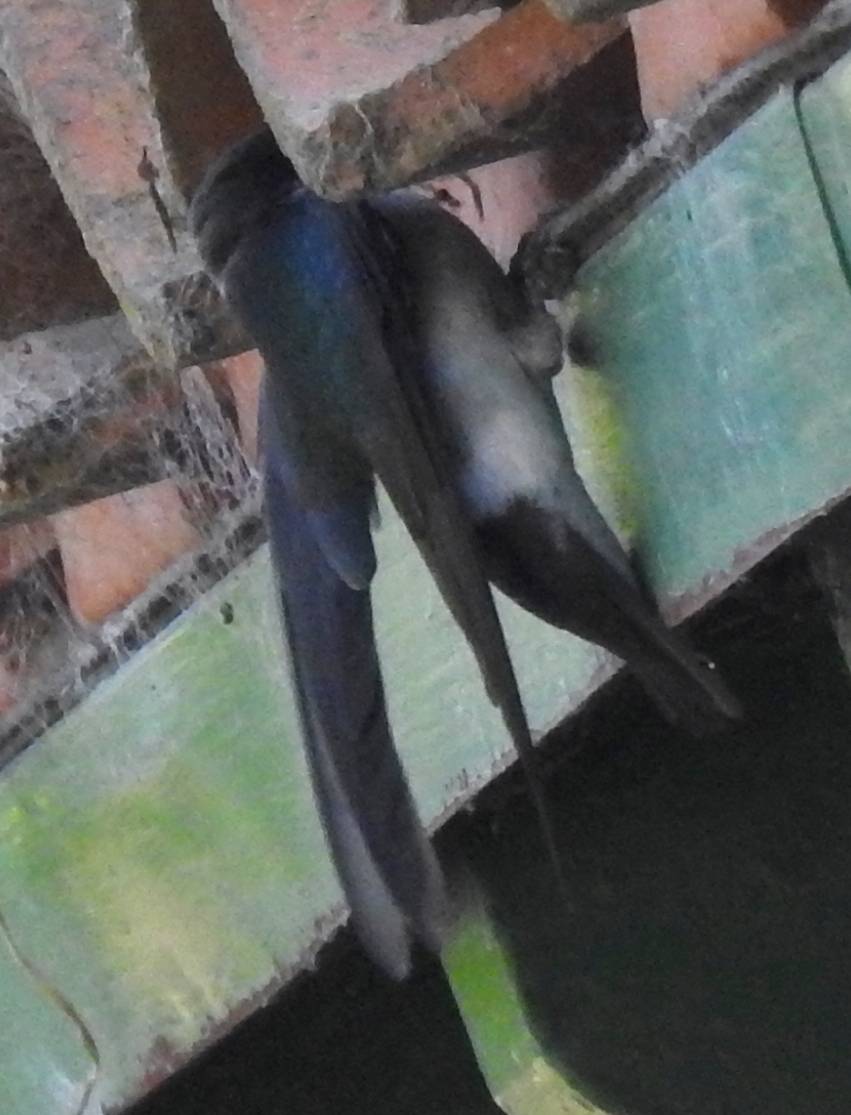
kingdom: Animalia
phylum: Chordata
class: Aves
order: Passeriformes
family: Hirundinidae
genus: Tachycineta
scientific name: Tachycineta thalassina
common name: Violet-green swallow
